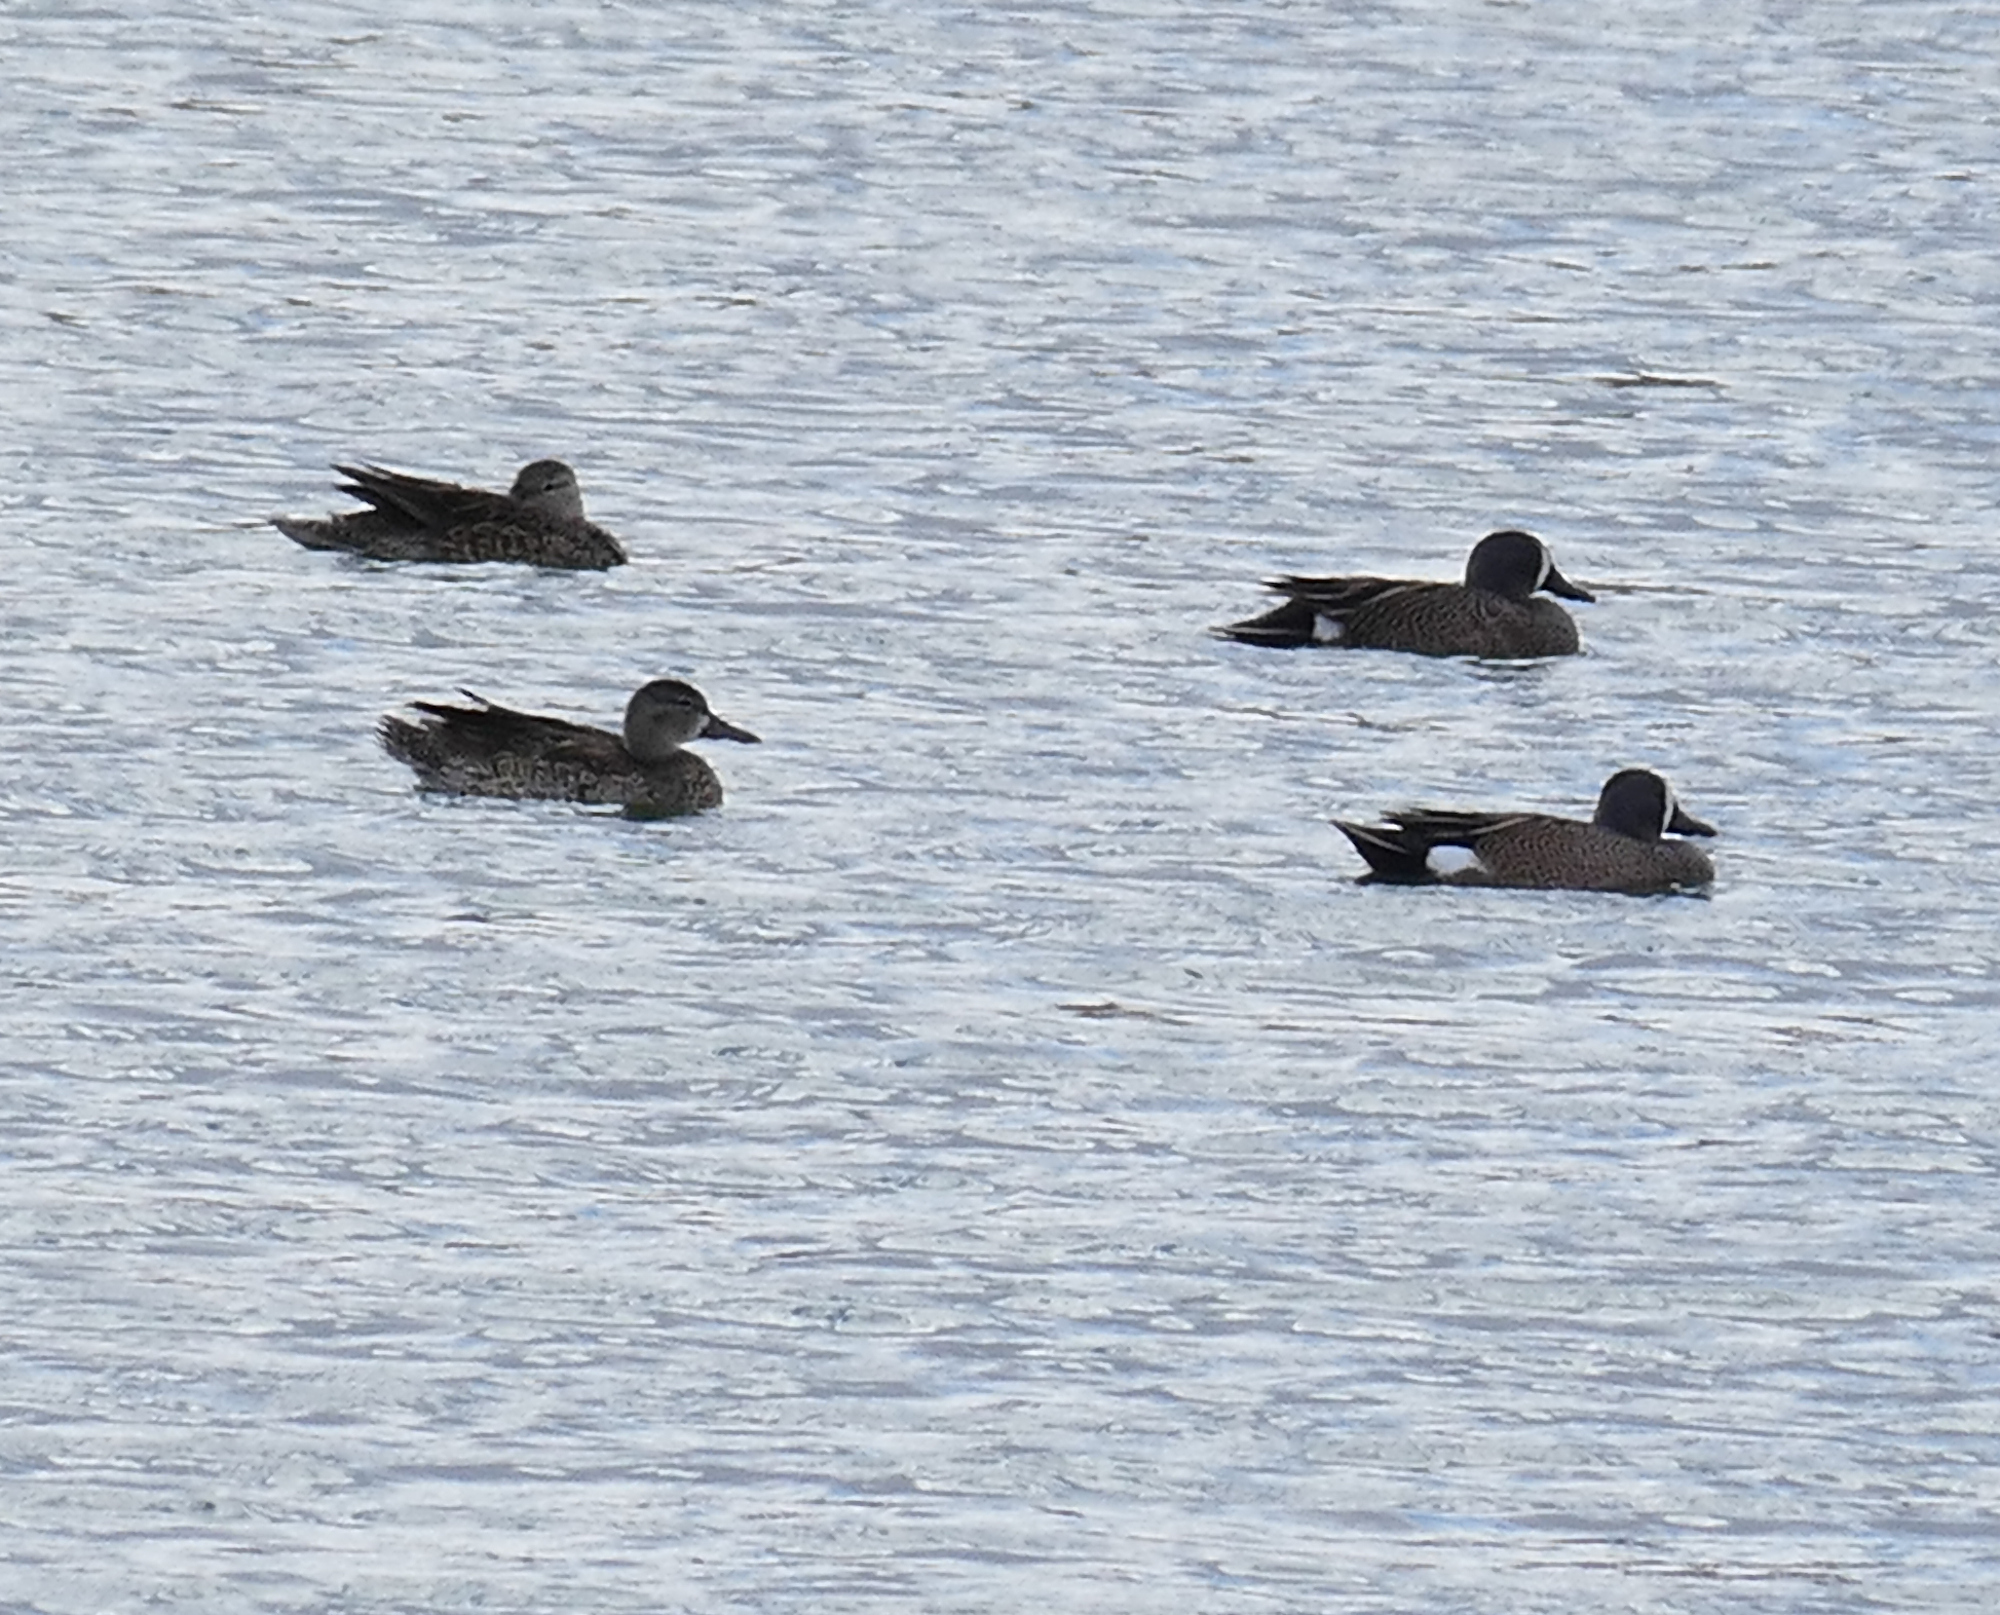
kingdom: Animalia
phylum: Chordata
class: Aves
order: Anseriformes
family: Anatidae
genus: Spatula
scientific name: Spatula discors
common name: Blue-winged teal
